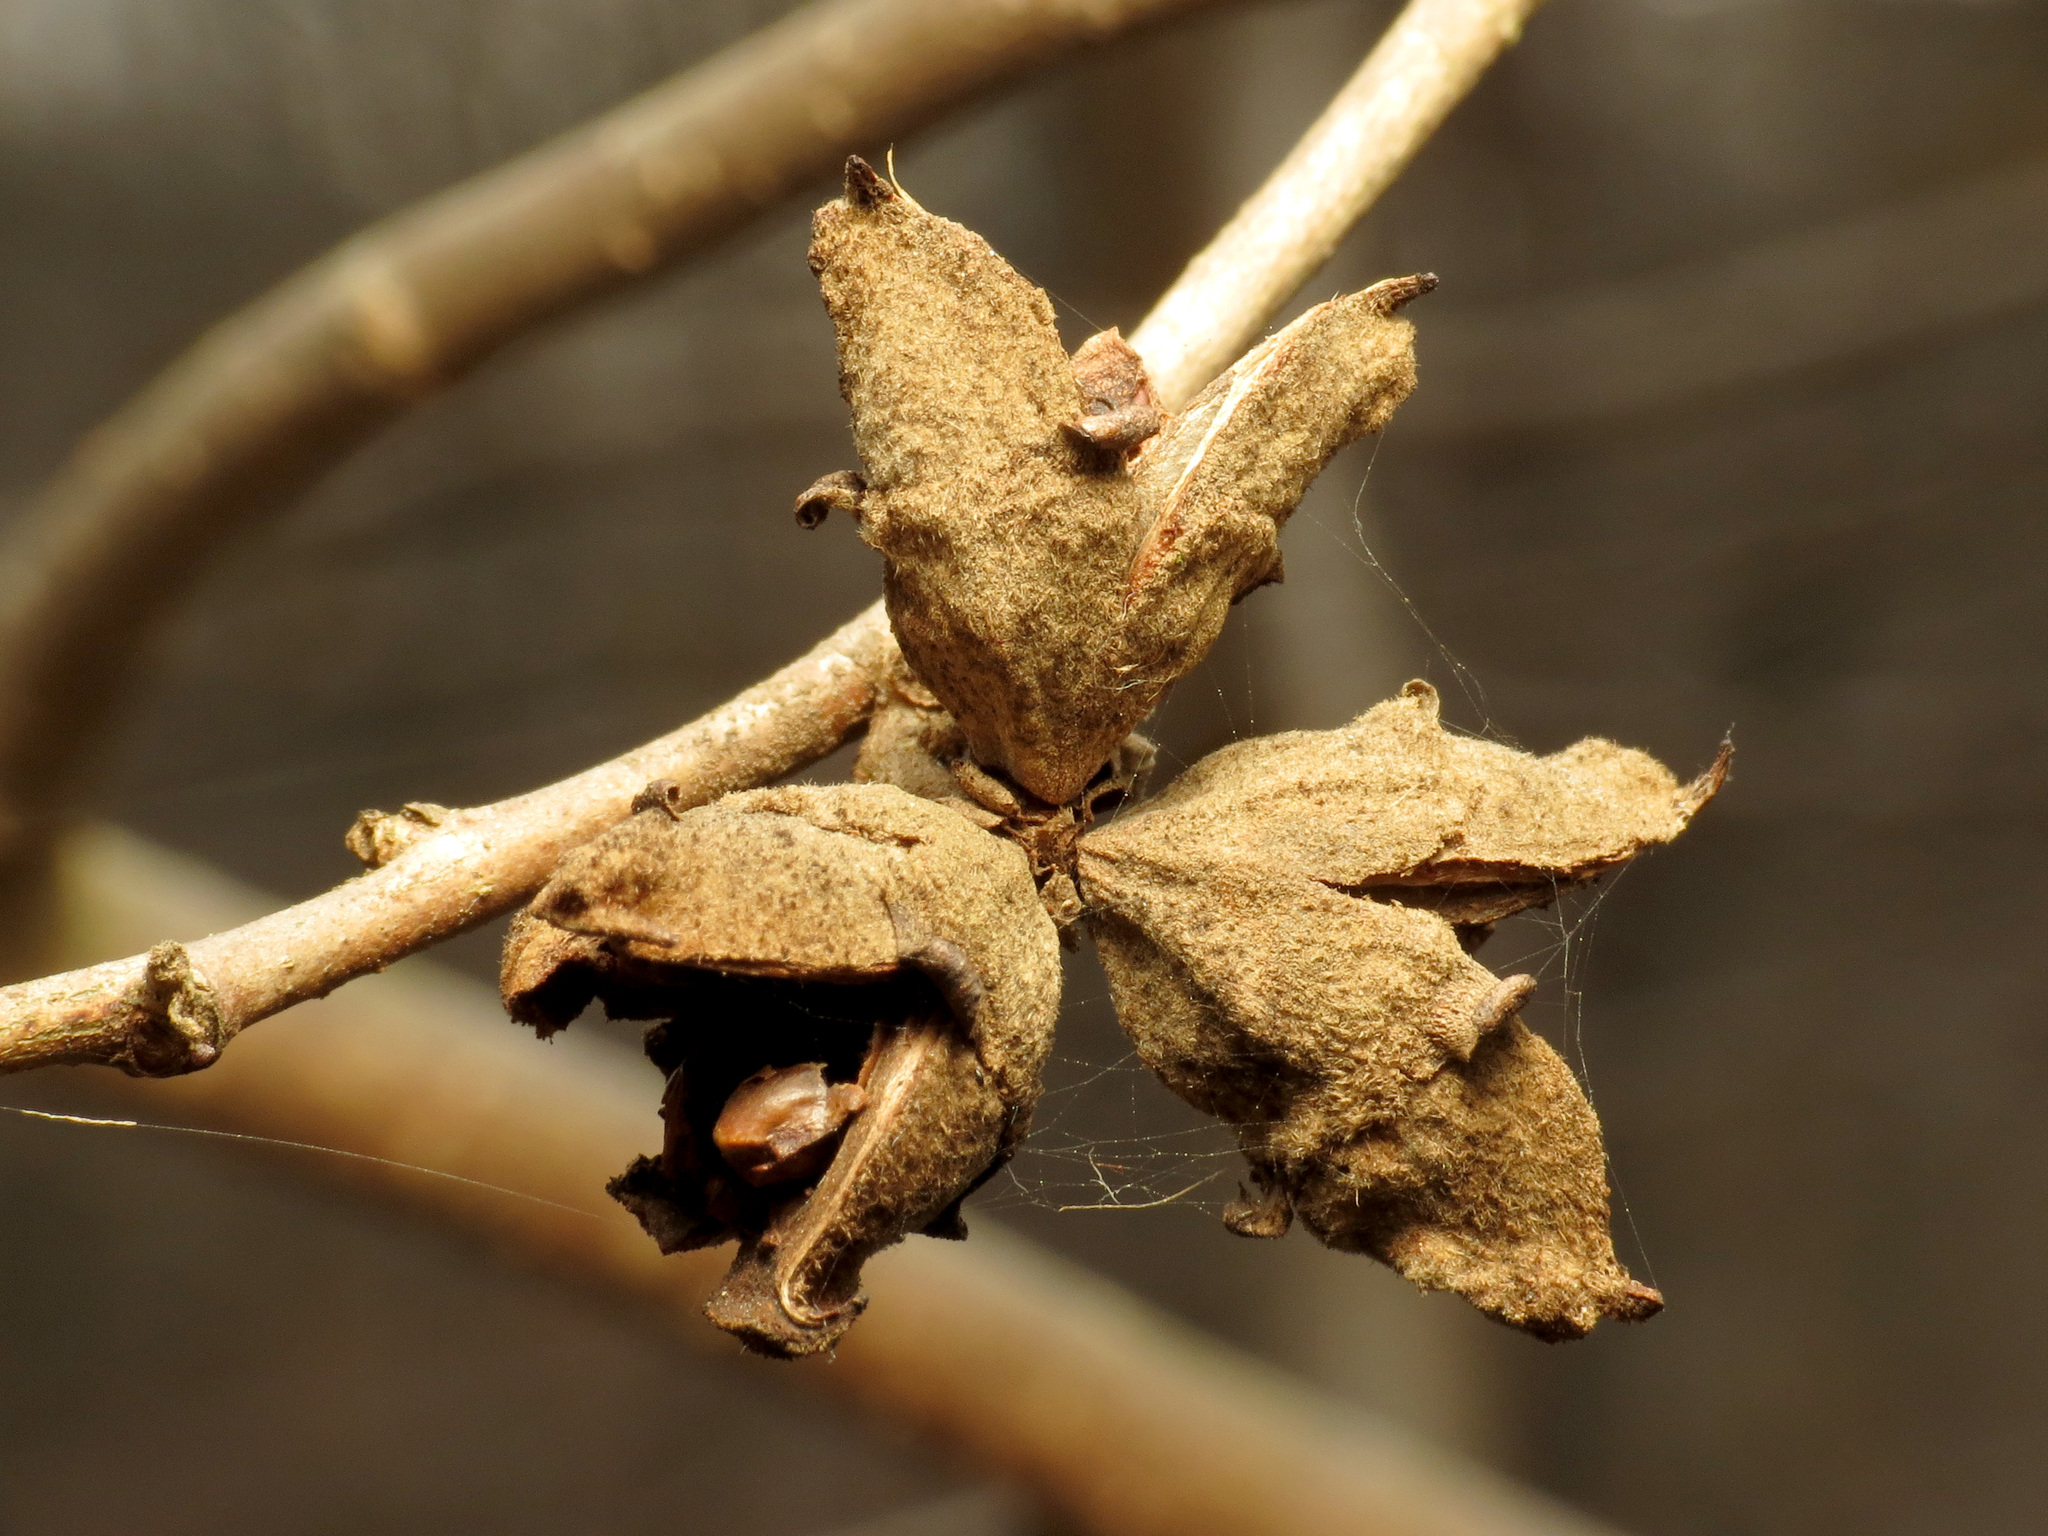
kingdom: Plantae
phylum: Tracheophyta
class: Magnoliopsida
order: Saxifragales
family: Hamamelidaceae
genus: Hamamelis
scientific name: Hamamelis virginiana
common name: Witch-hazel
